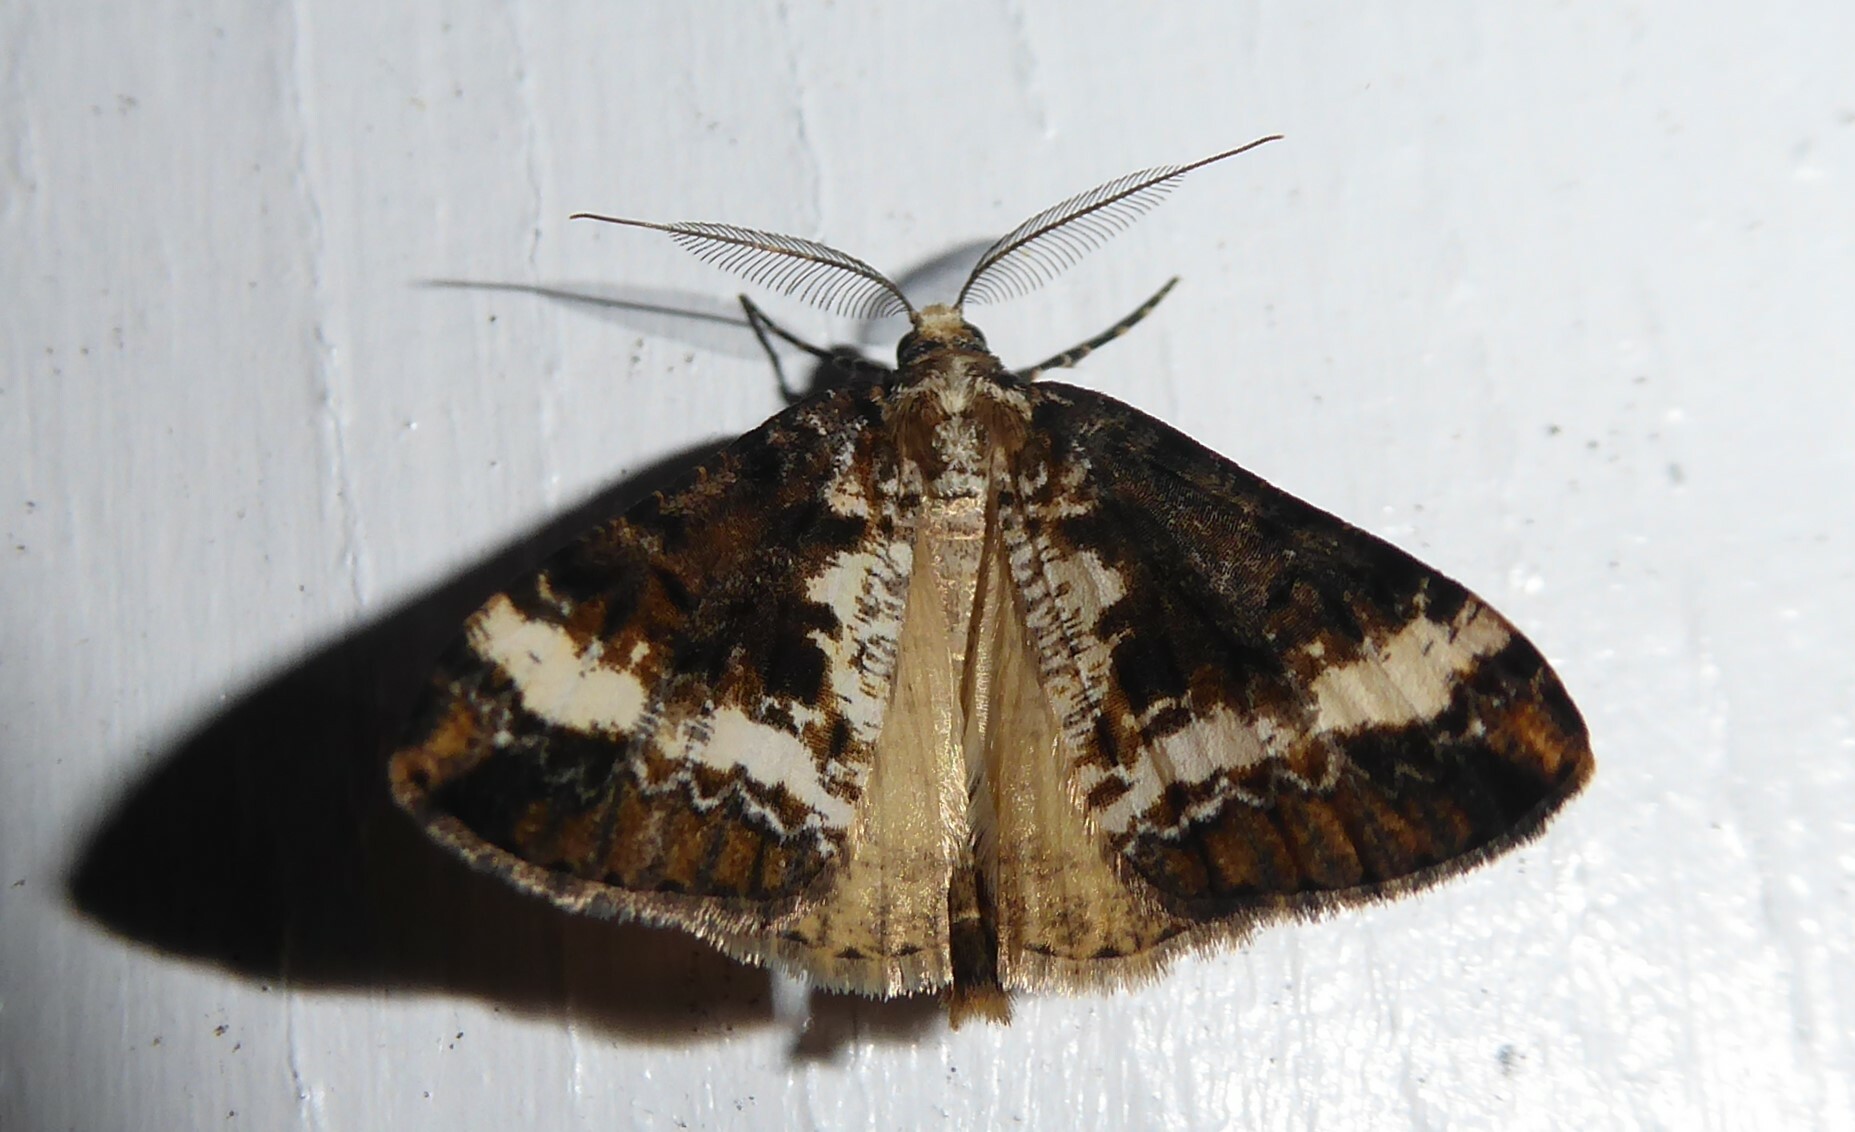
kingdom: Animalia
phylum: Arthropoda
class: Insecta
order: Lepidoptera
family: Geometridae
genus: Pseudocoremia
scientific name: Pseudocoremia leucelaea
